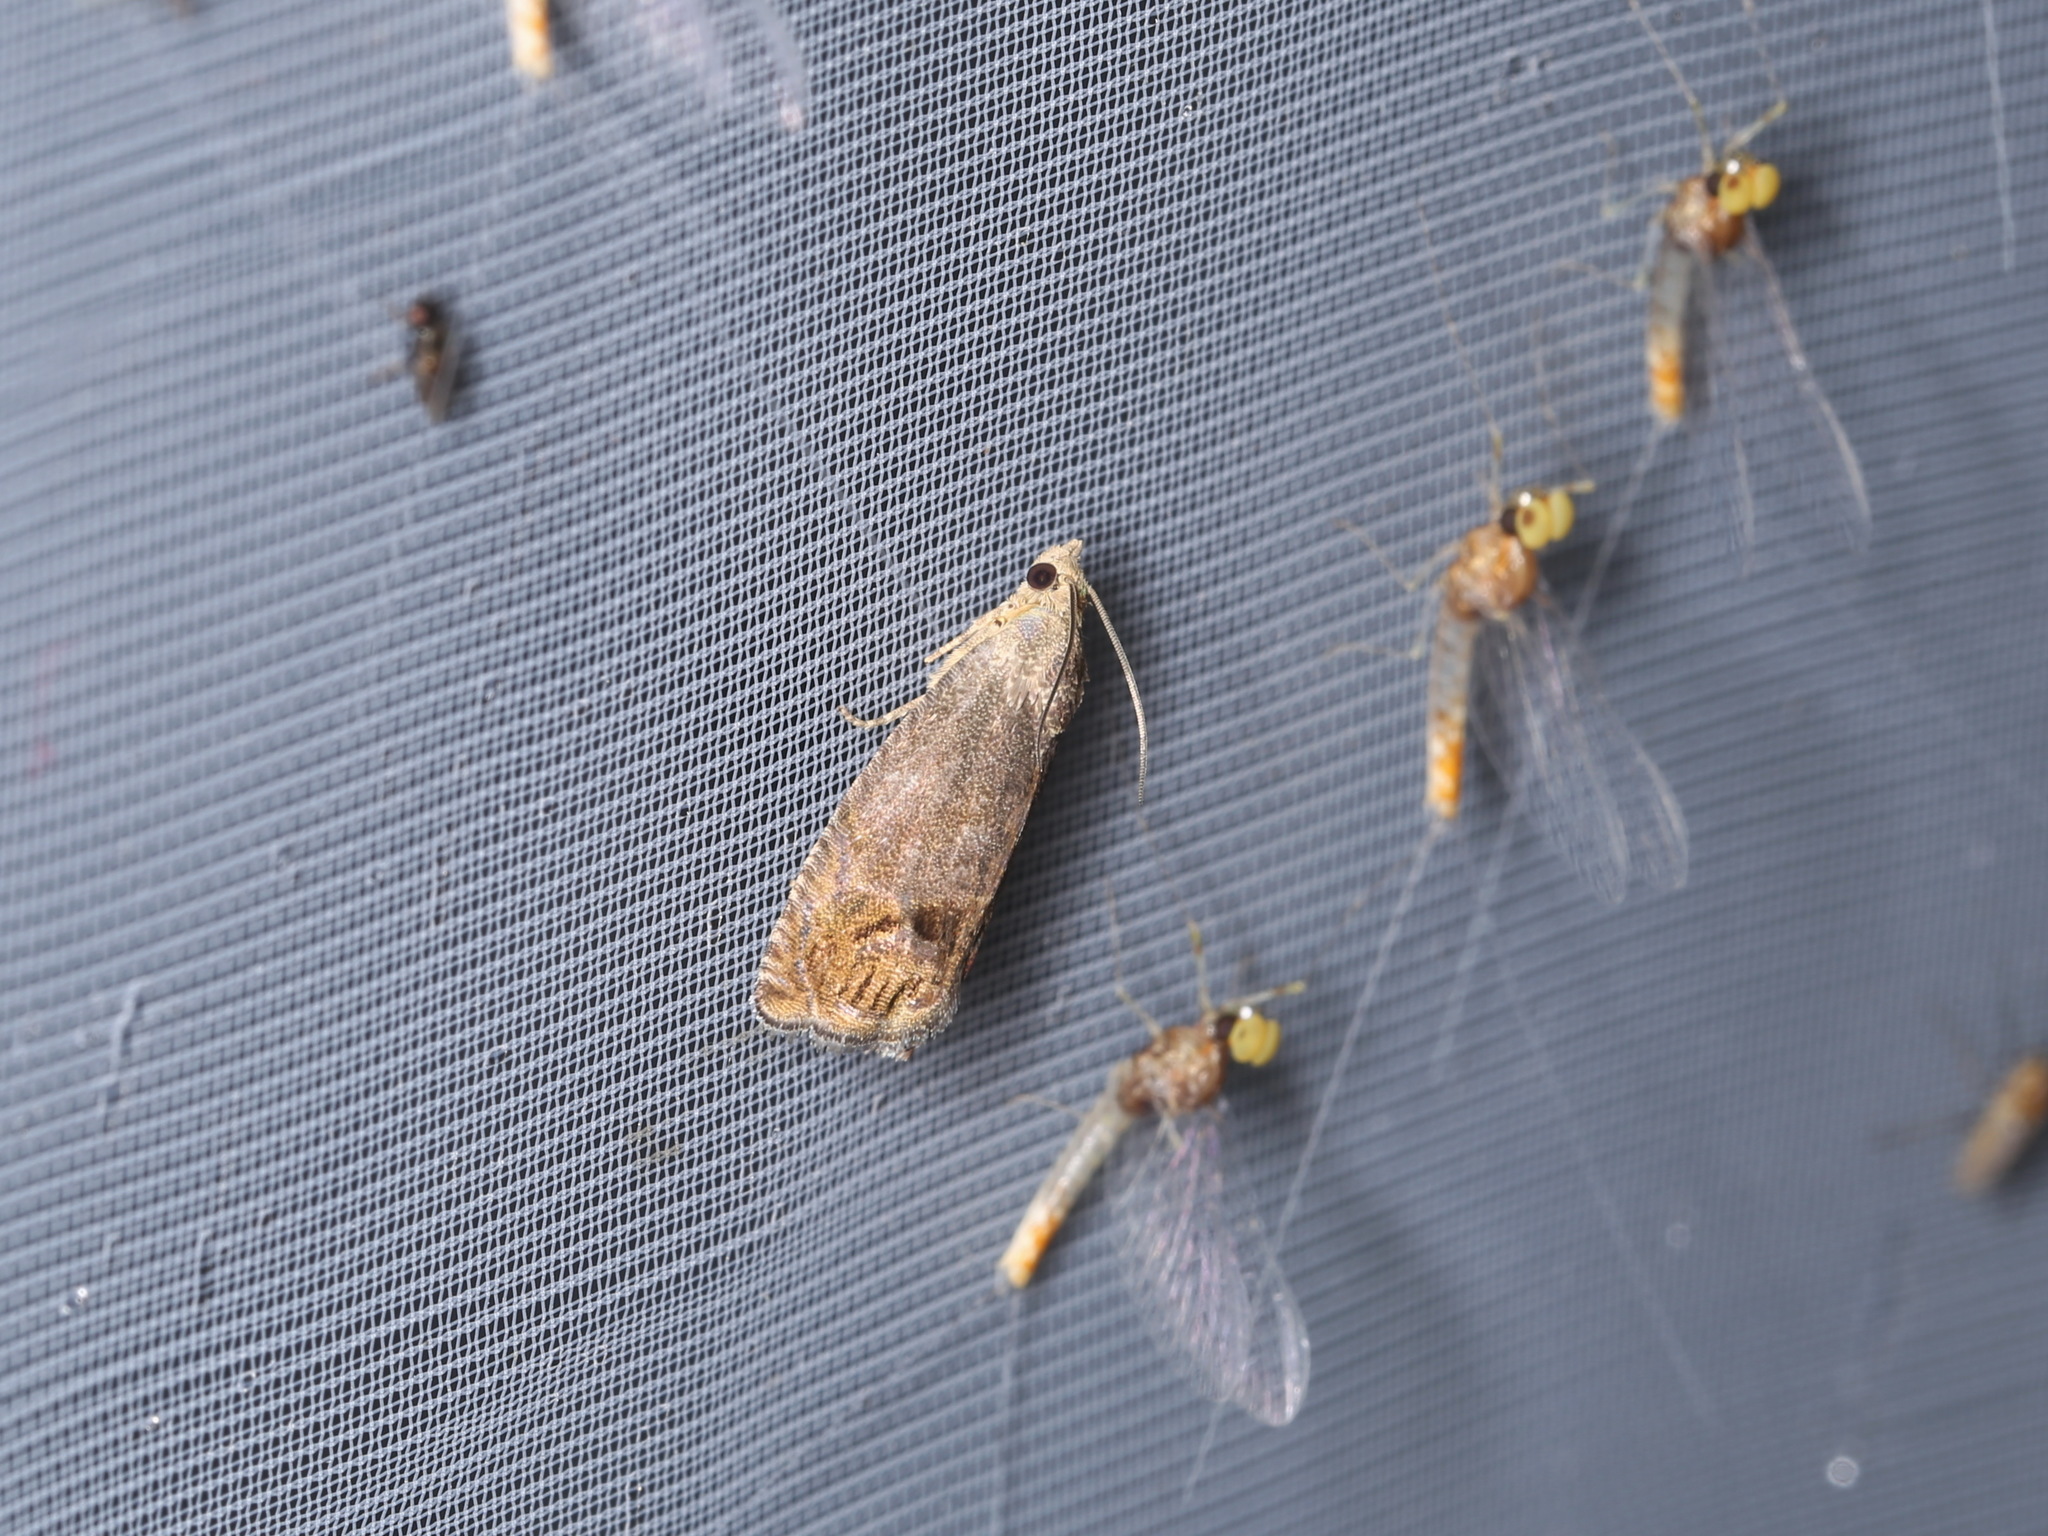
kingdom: Animalia
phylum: Arthropoda
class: Insecta
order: Lepidoptera
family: Tortricidae
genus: Cydia
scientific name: Cydia splendana
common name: De: kastanienwickler, eichenwickler es: oruga de la castaña fr: carpocapse des châtaignes it: cidia o tortrice tardiva delle castagne pt: bichado das castanhas gb: acorn moth, chestnut fruit tortrix
